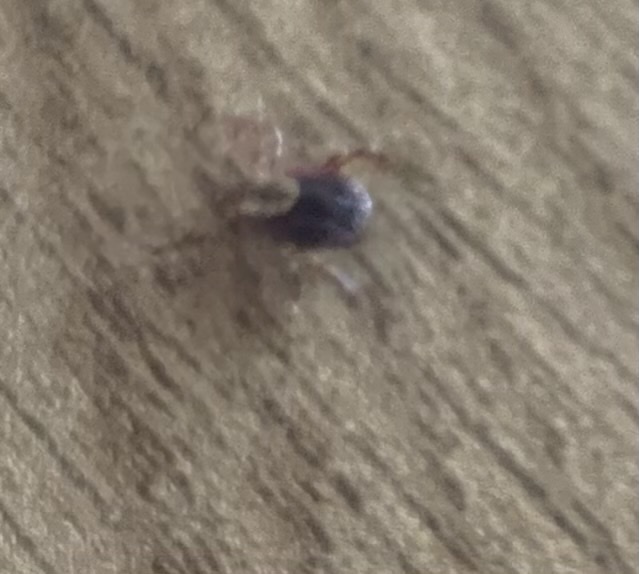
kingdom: Animalia
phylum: Arthropoda
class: Arachnida
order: Ixodida
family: Ixodidae
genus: Dermacentor
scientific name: Dermacentor variabilis
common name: American dog tick
